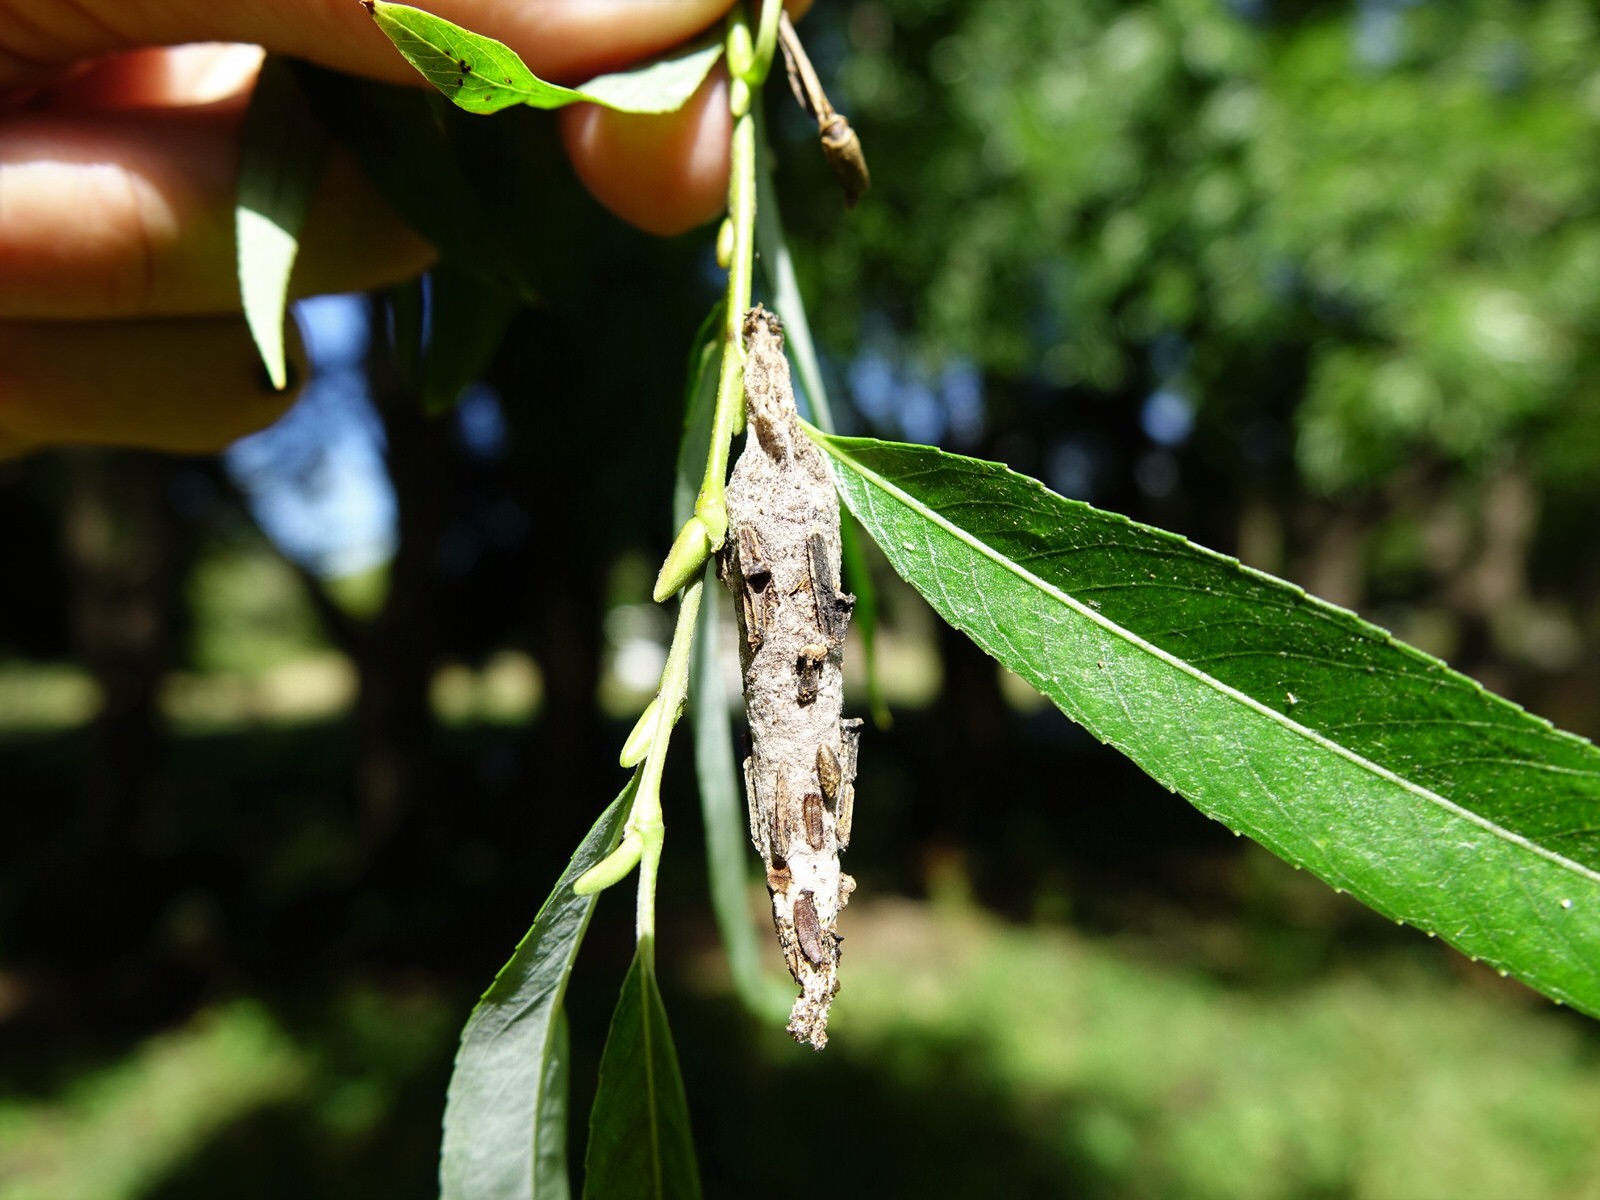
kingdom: Animalia
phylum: Arthropoda
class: Insecta
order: Lepidoptera
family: Psychidae
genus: Liothula
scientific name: Liothula omnivora
